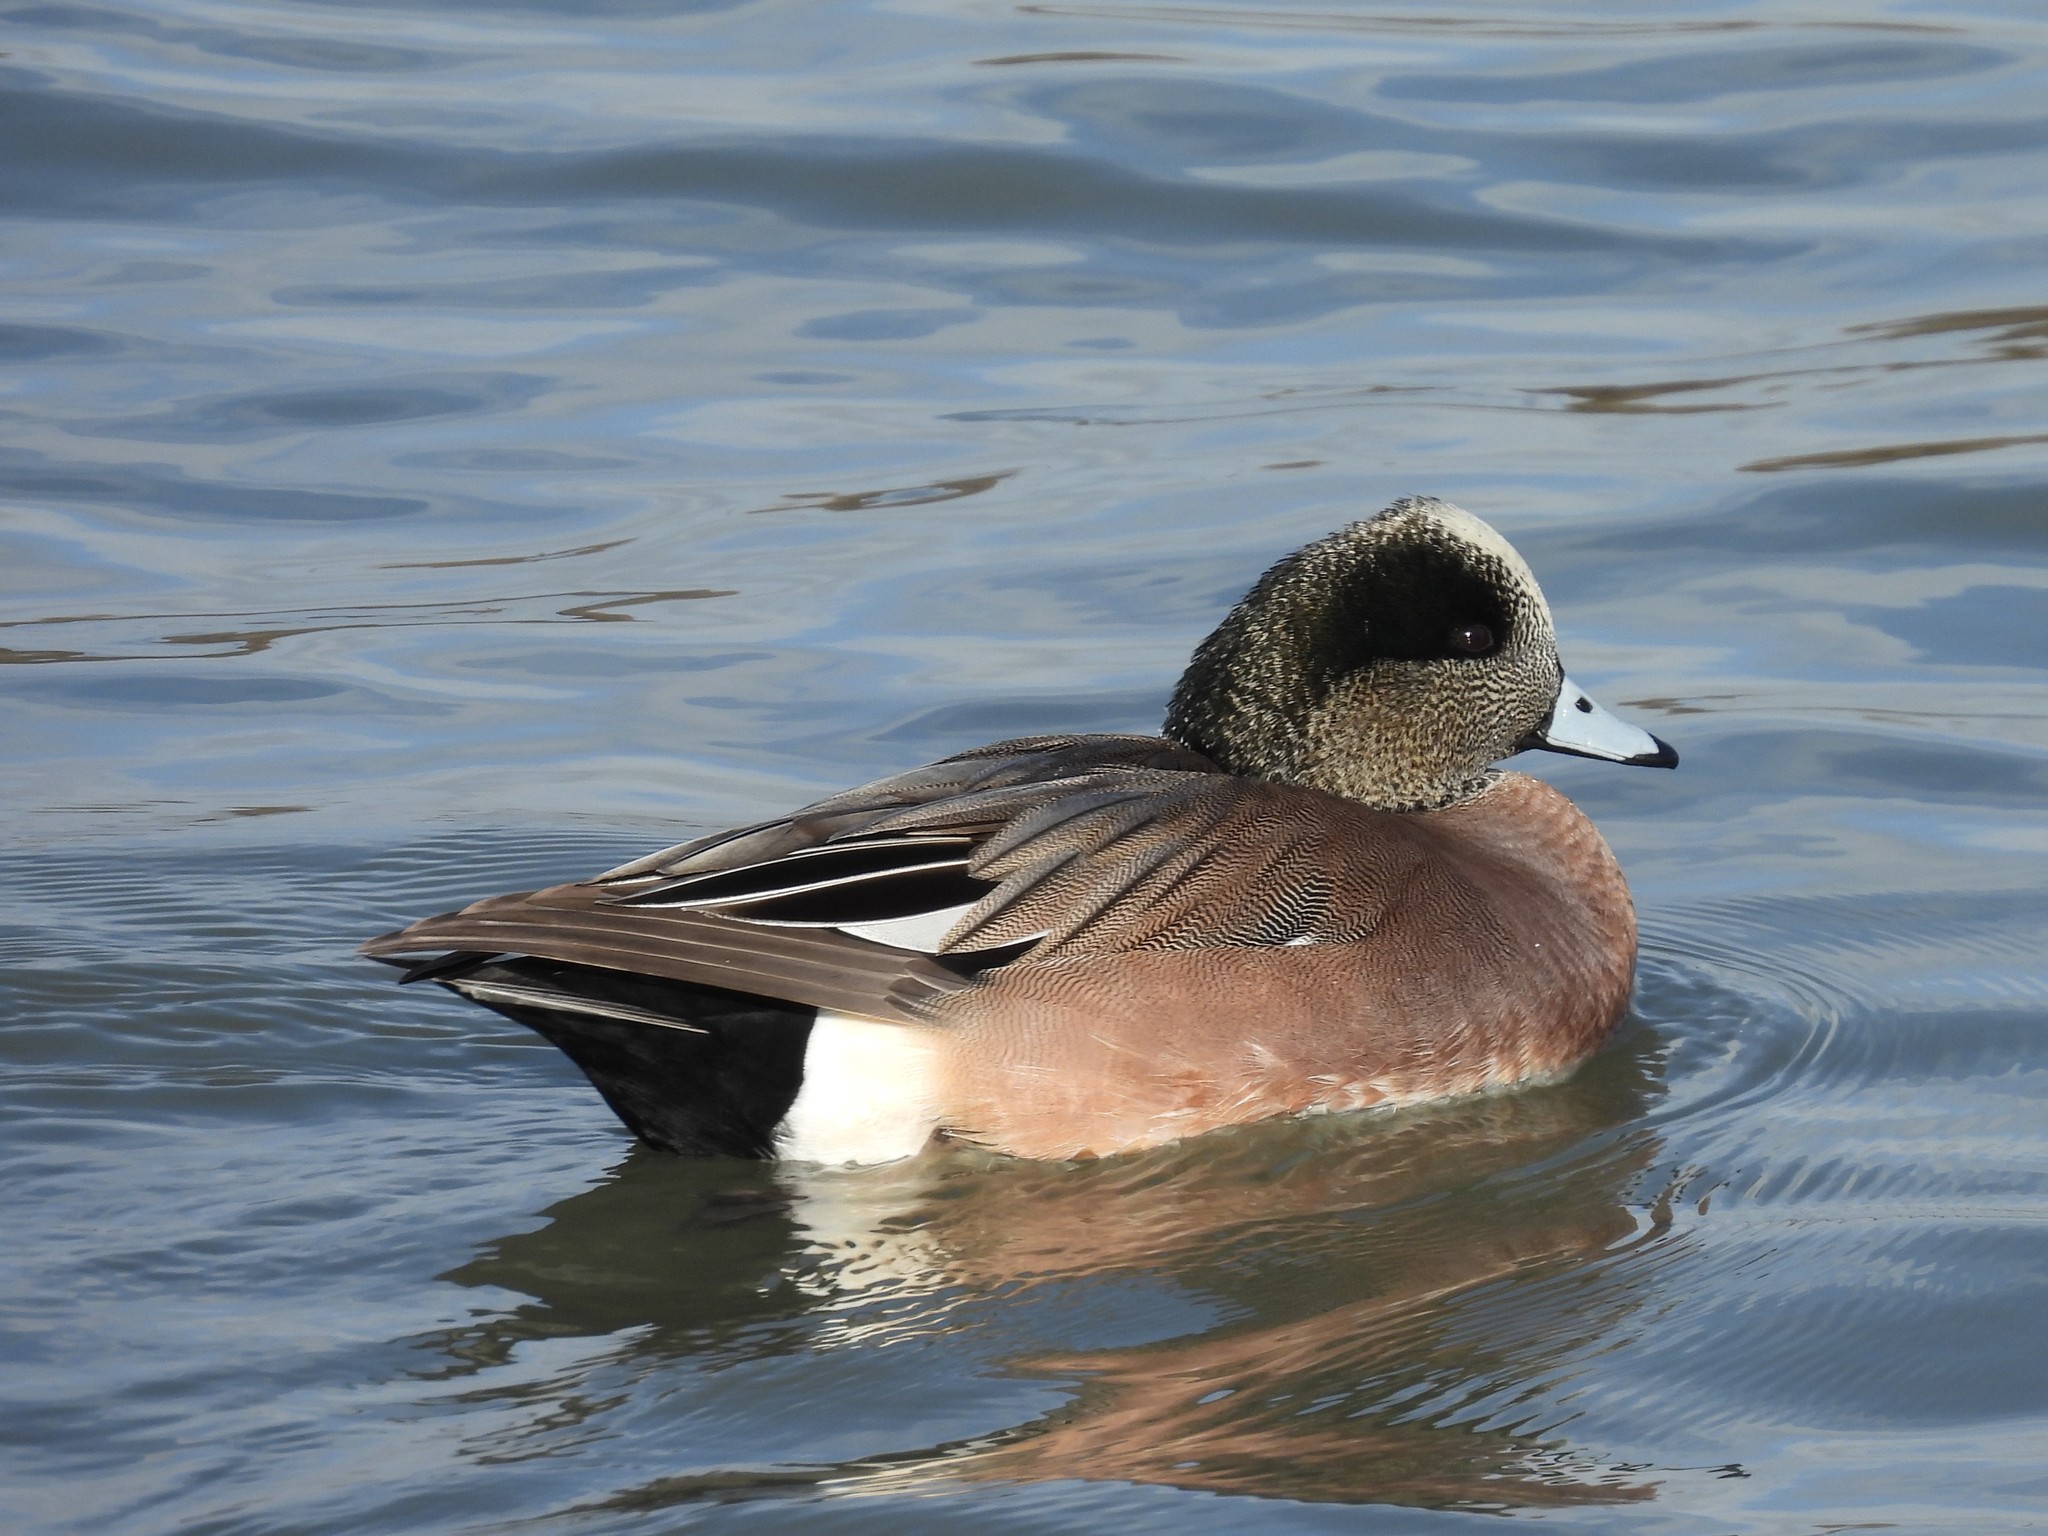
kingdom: Animalia
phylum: Chordata
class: Aves
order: Anseriformes
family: Anatidae
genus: Mareca
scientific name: Mareca americana
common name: American wigeon
